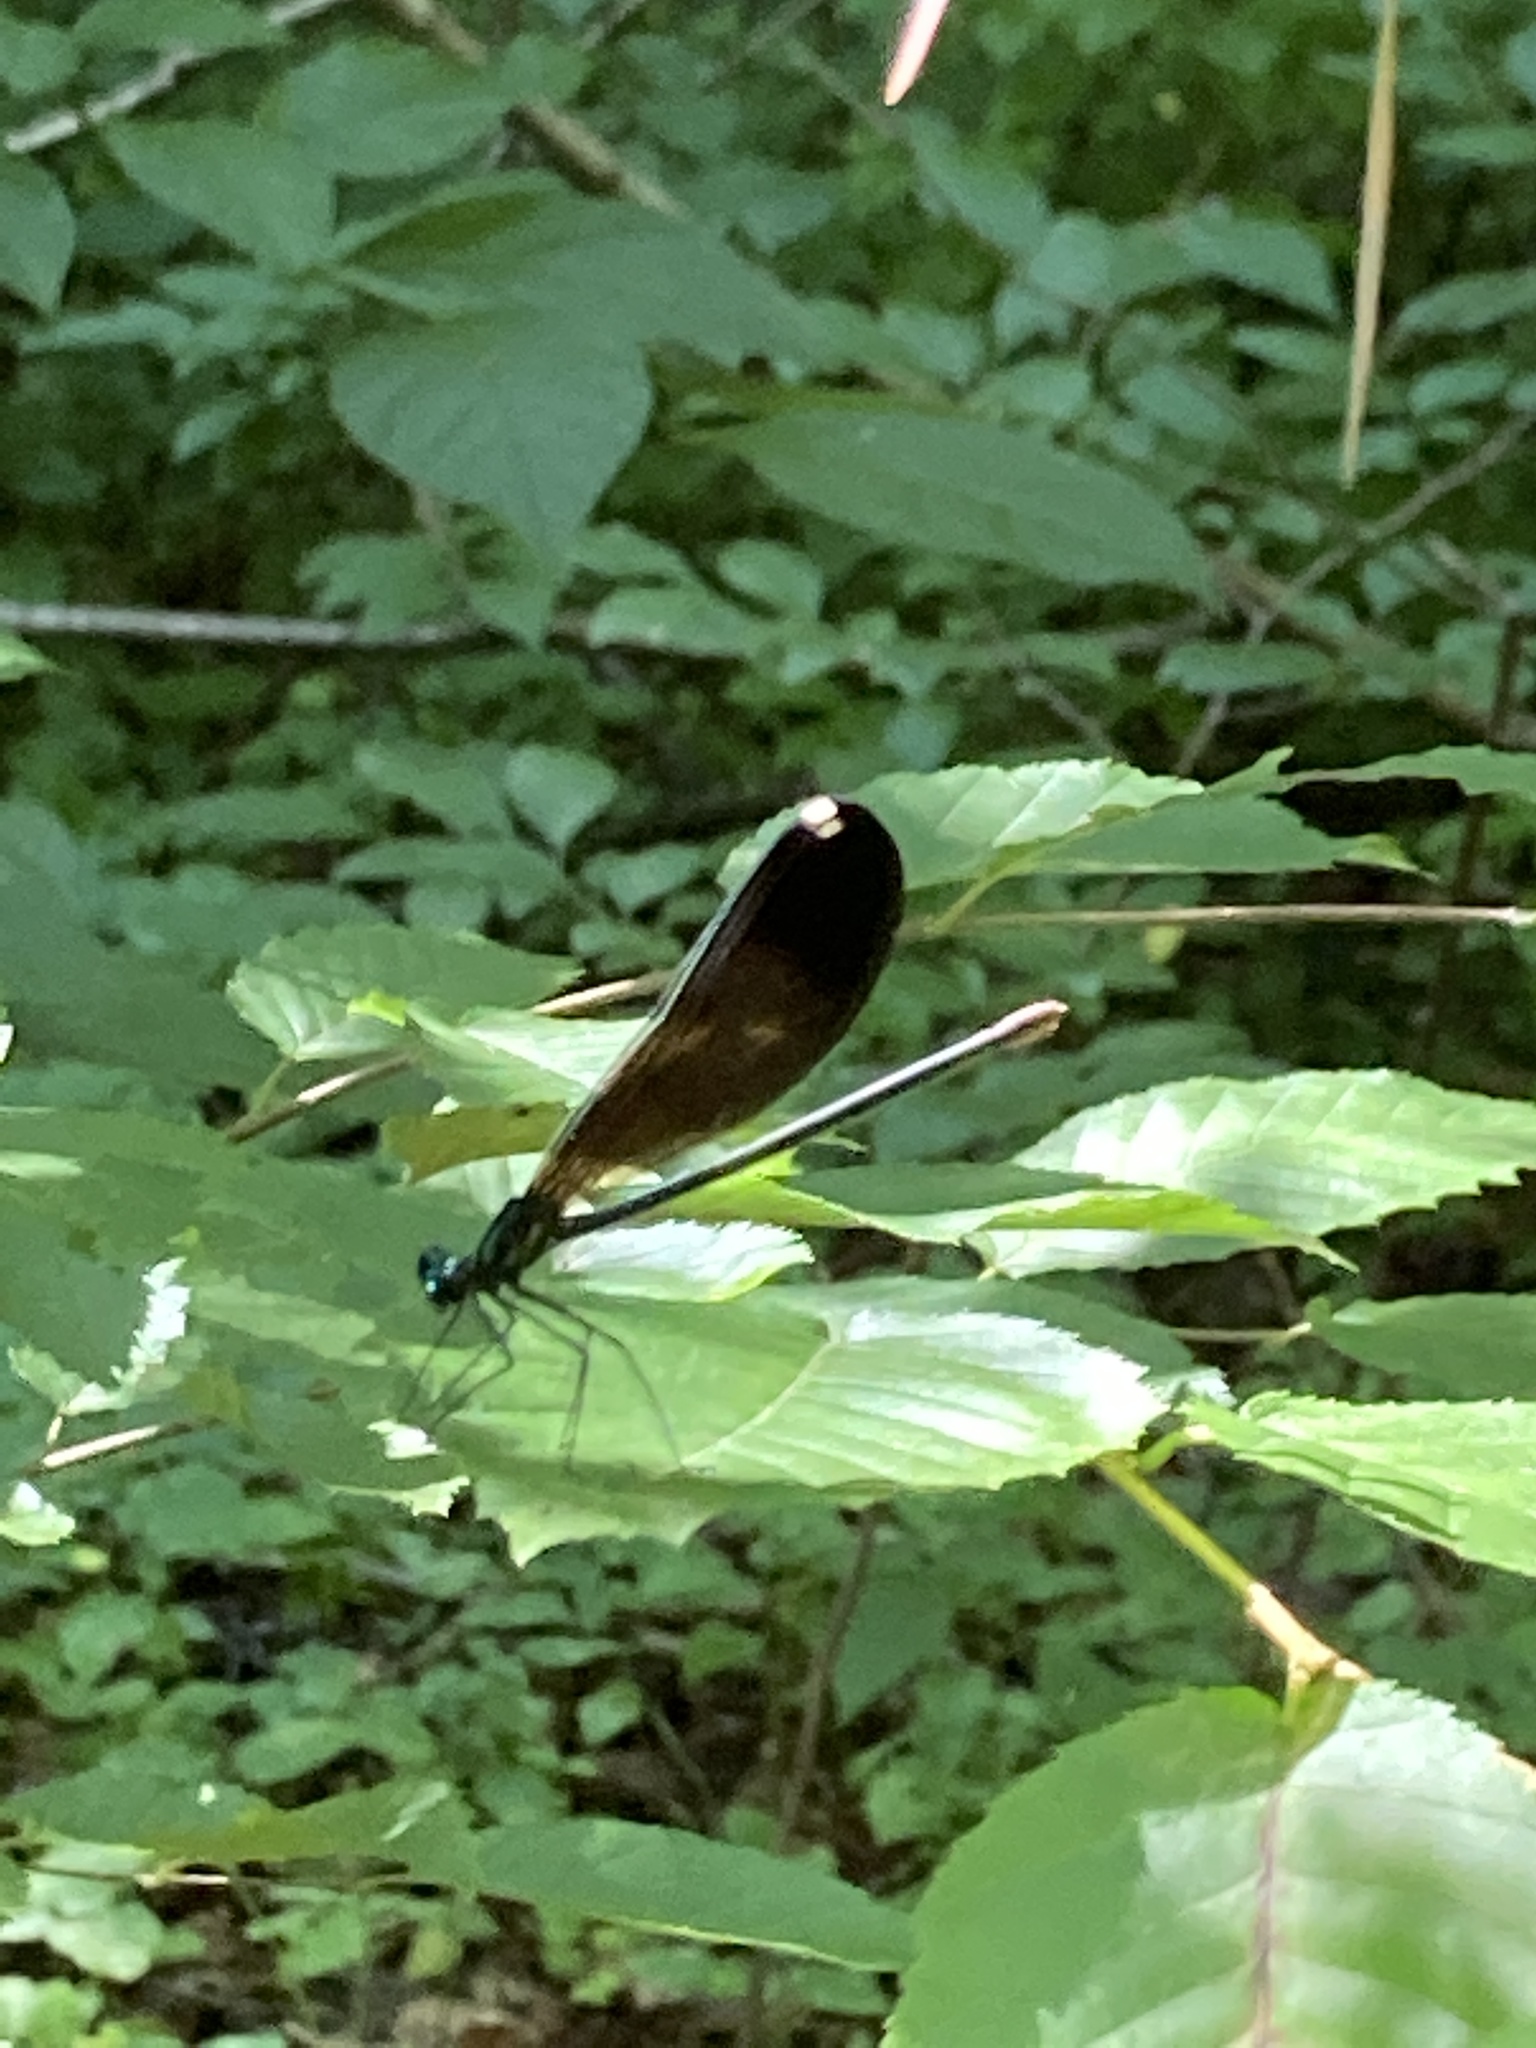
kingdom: Animalia
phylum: Arthropoda
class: Insecta
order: Odonata
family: Calopterygidae
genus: Calopteryx
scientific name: Calopteryx maculata
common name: Ebony jewelwing
